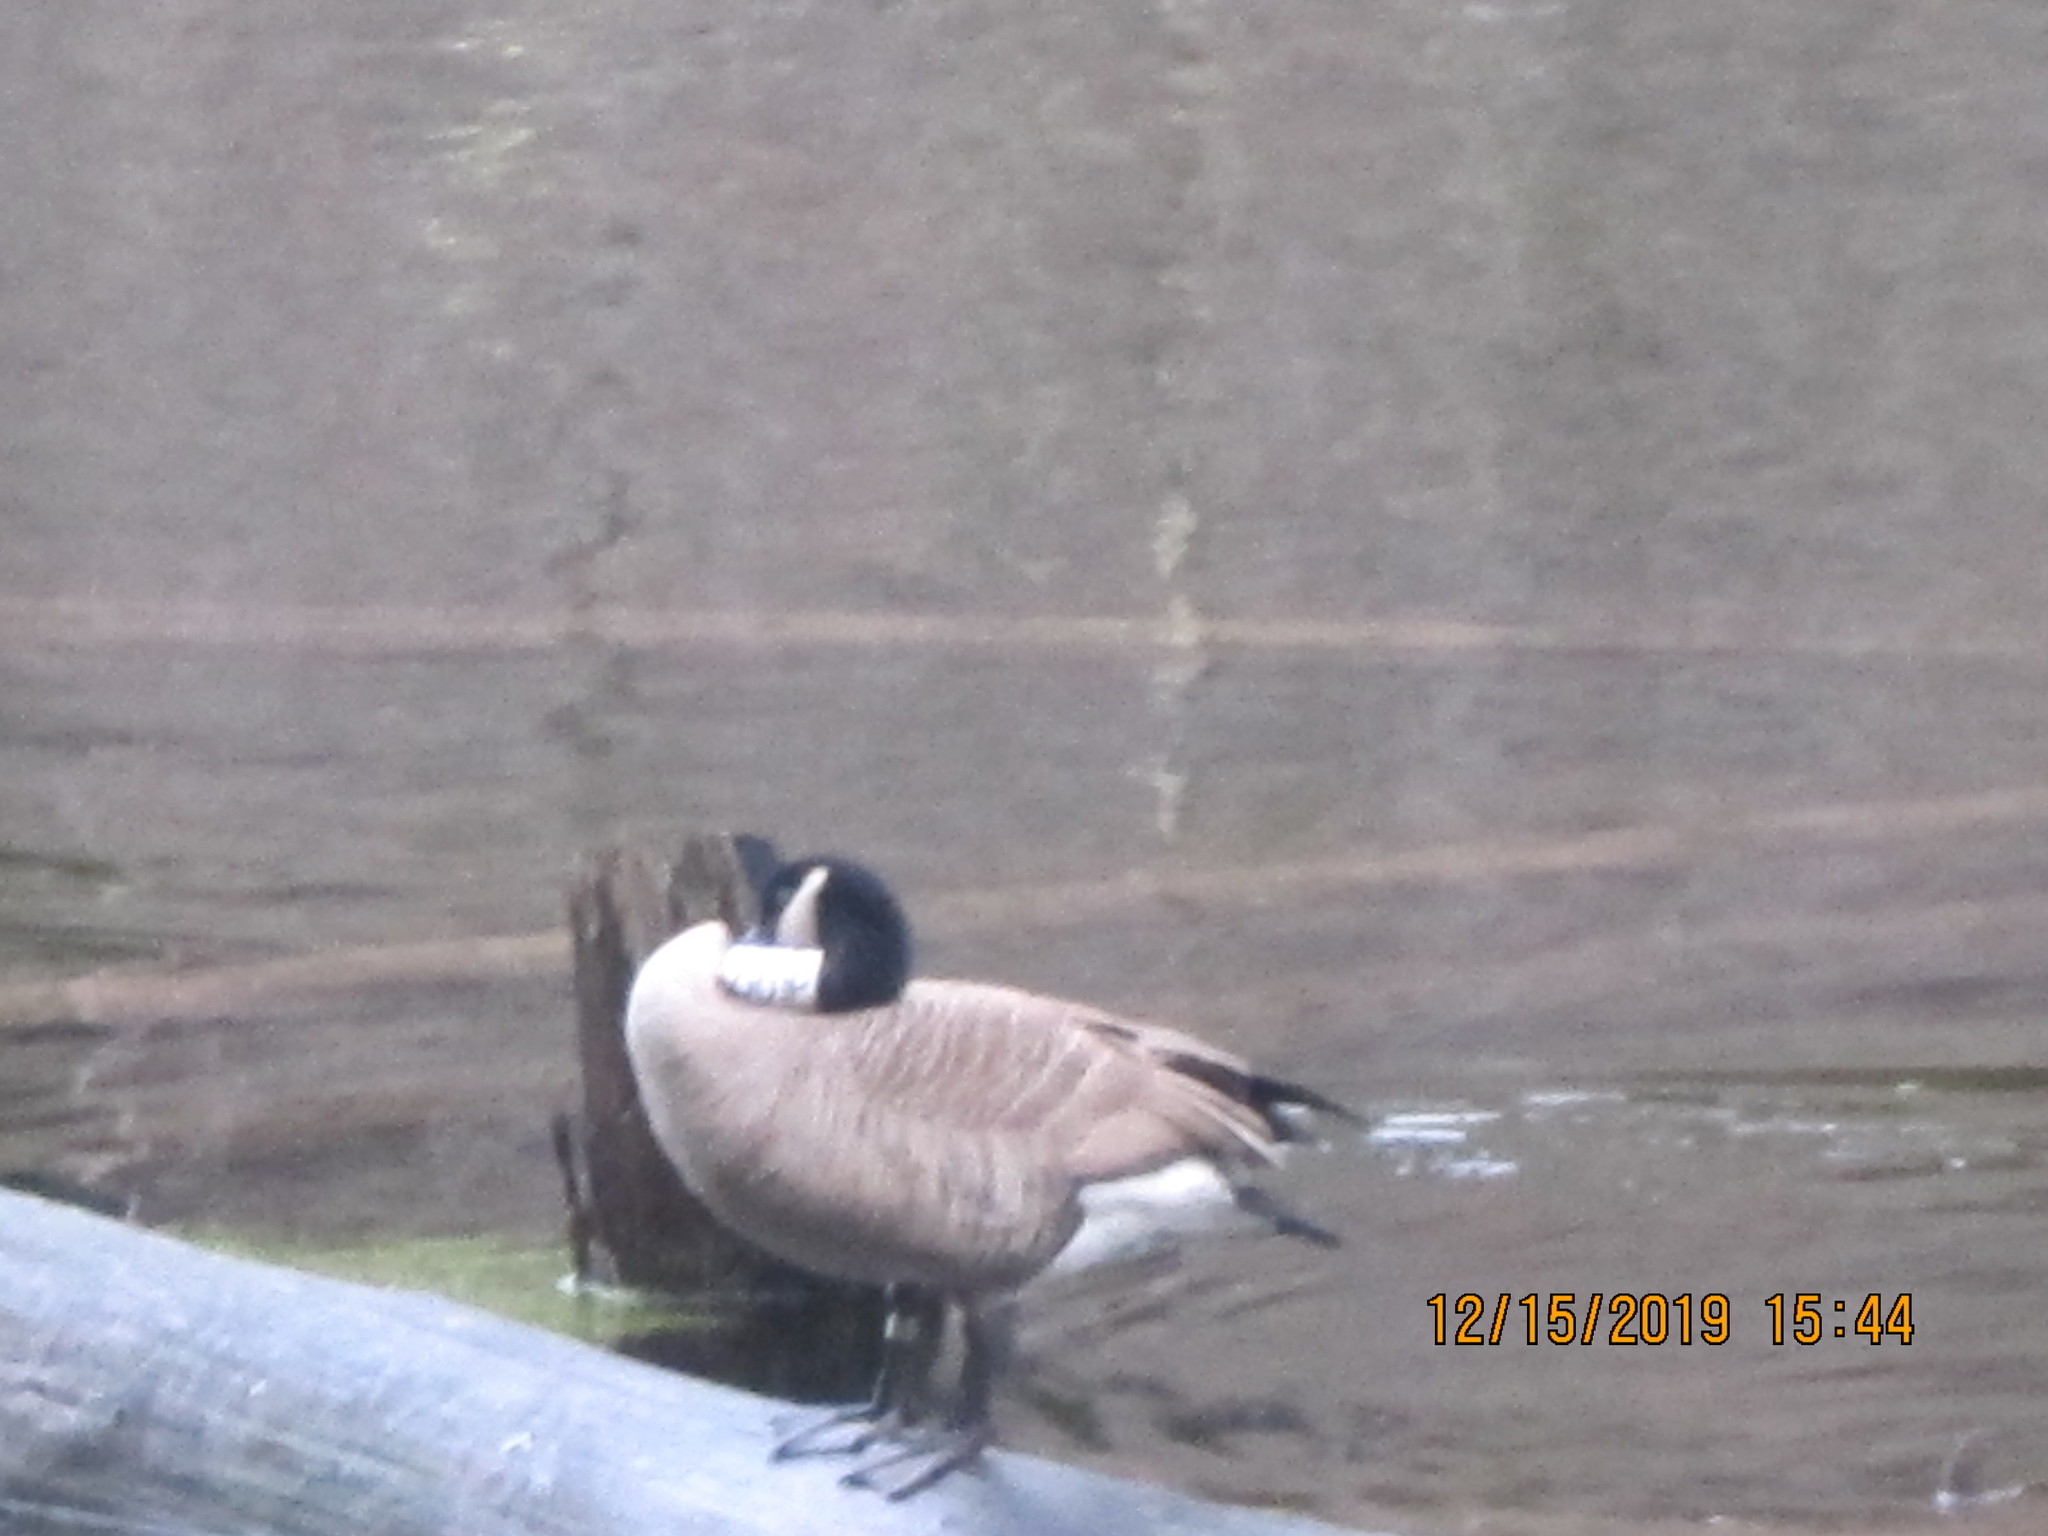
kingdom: Animalia
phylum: Chordata
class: Aves
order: Anseriformes
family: Anatidae
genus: Branta
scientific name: Branta canadensis
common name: Canada goose
